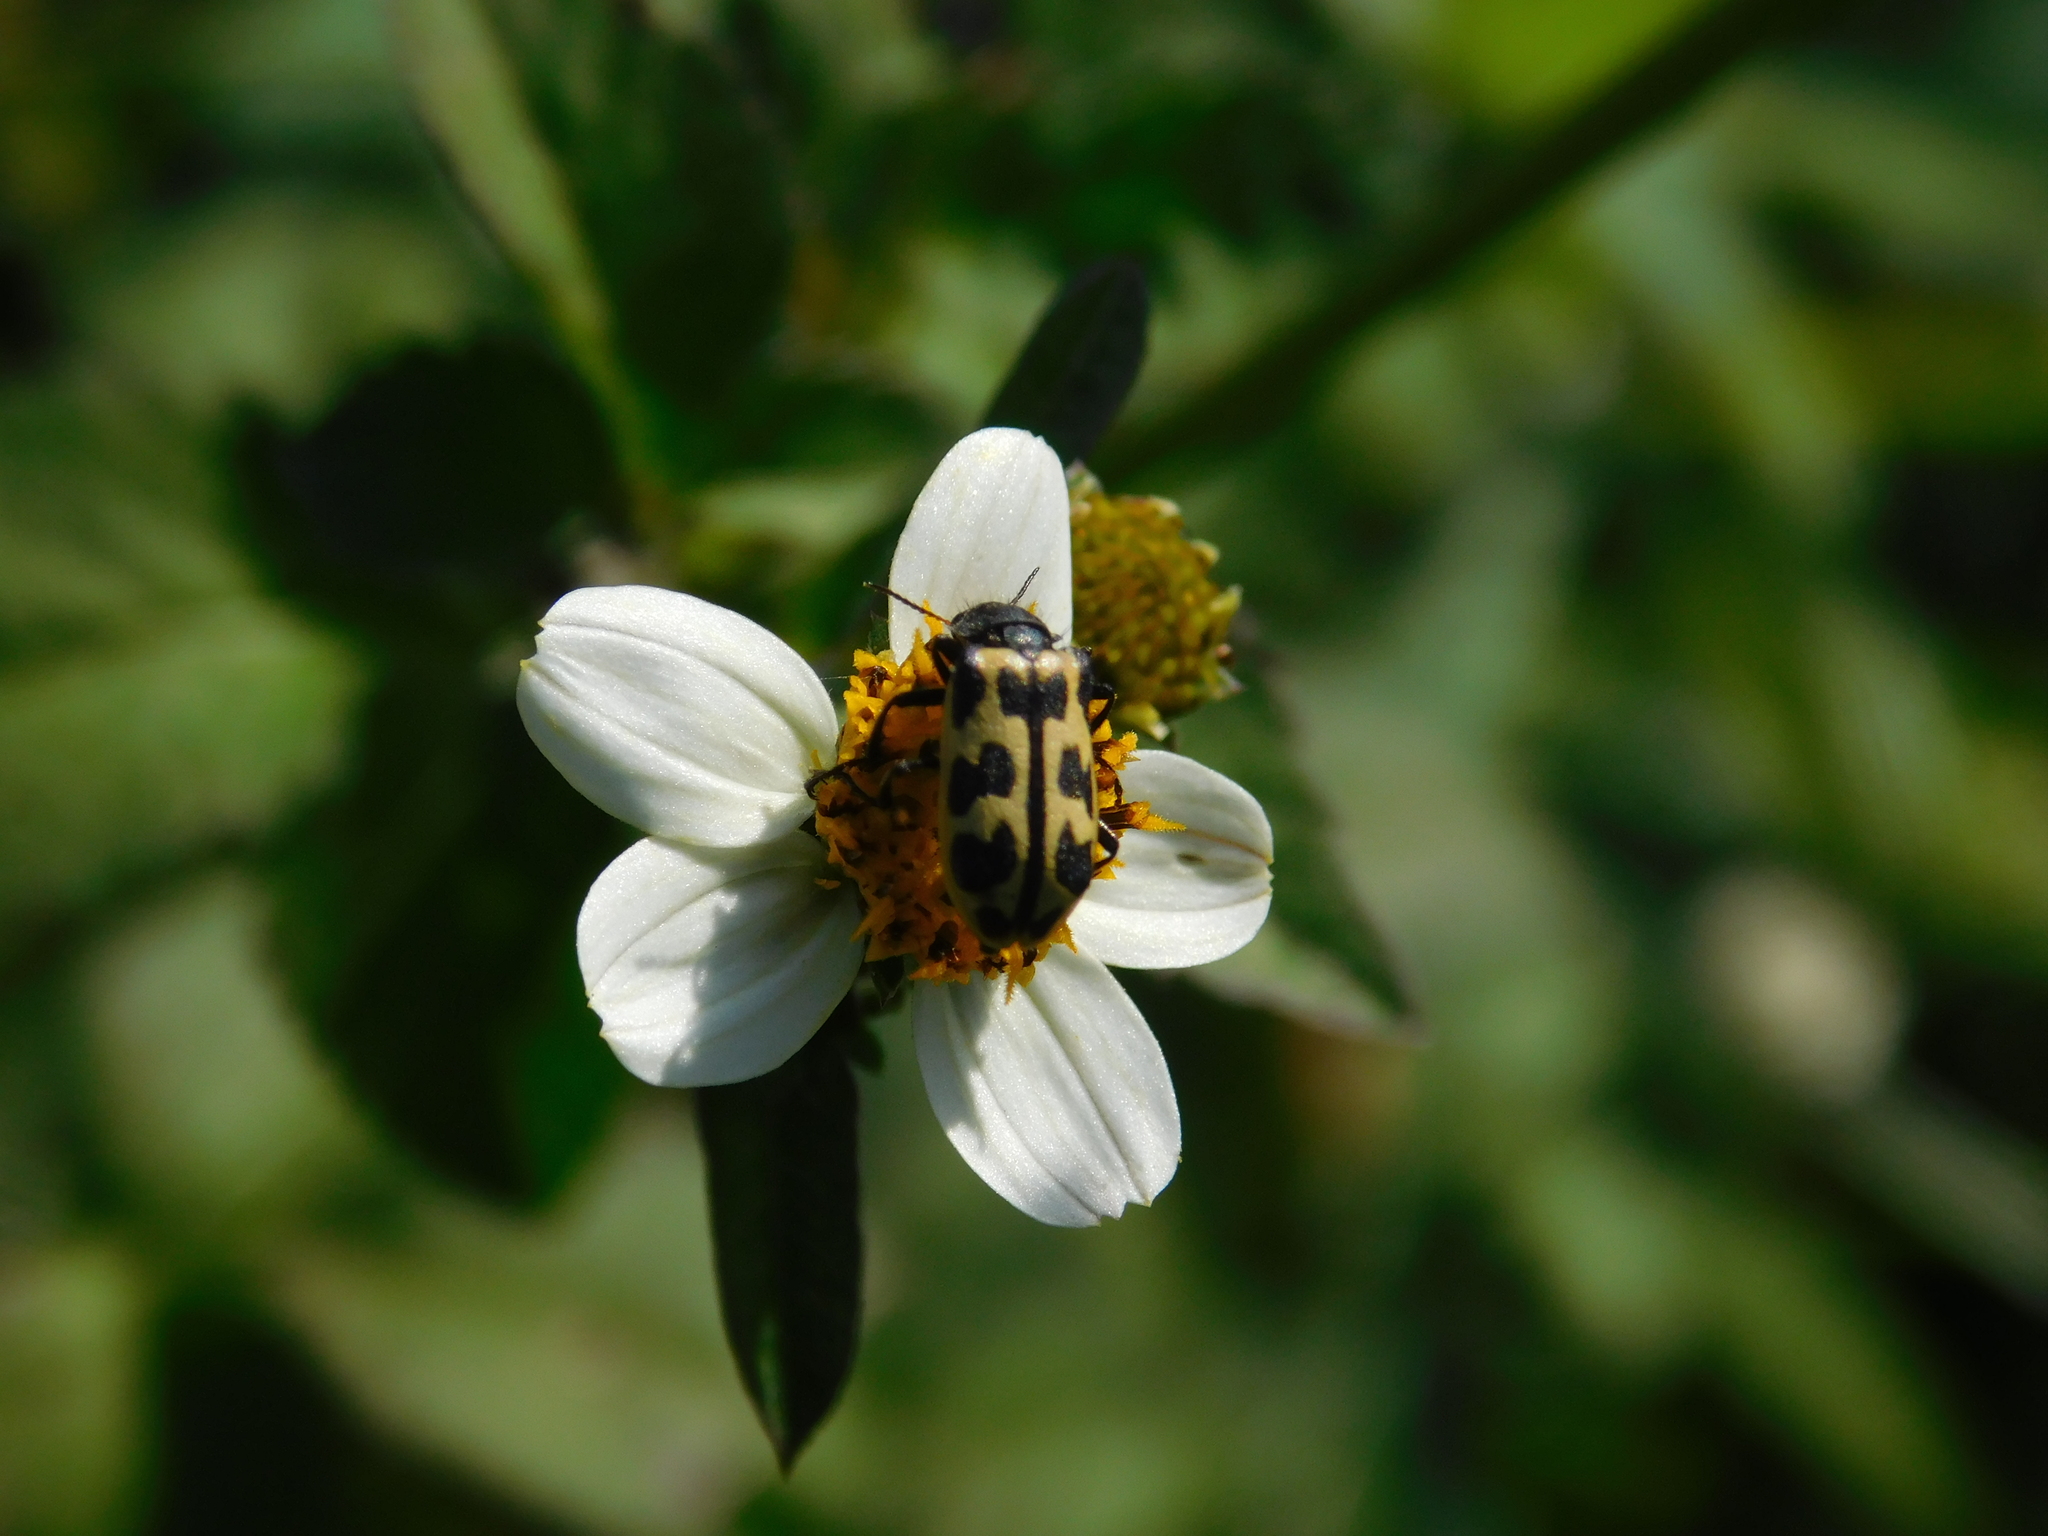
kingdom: Animalia
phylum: Arthropoda
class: Insecta
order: Coleoptera
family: Melyridae
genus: Astylus
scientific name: Astylus atromaculatus
